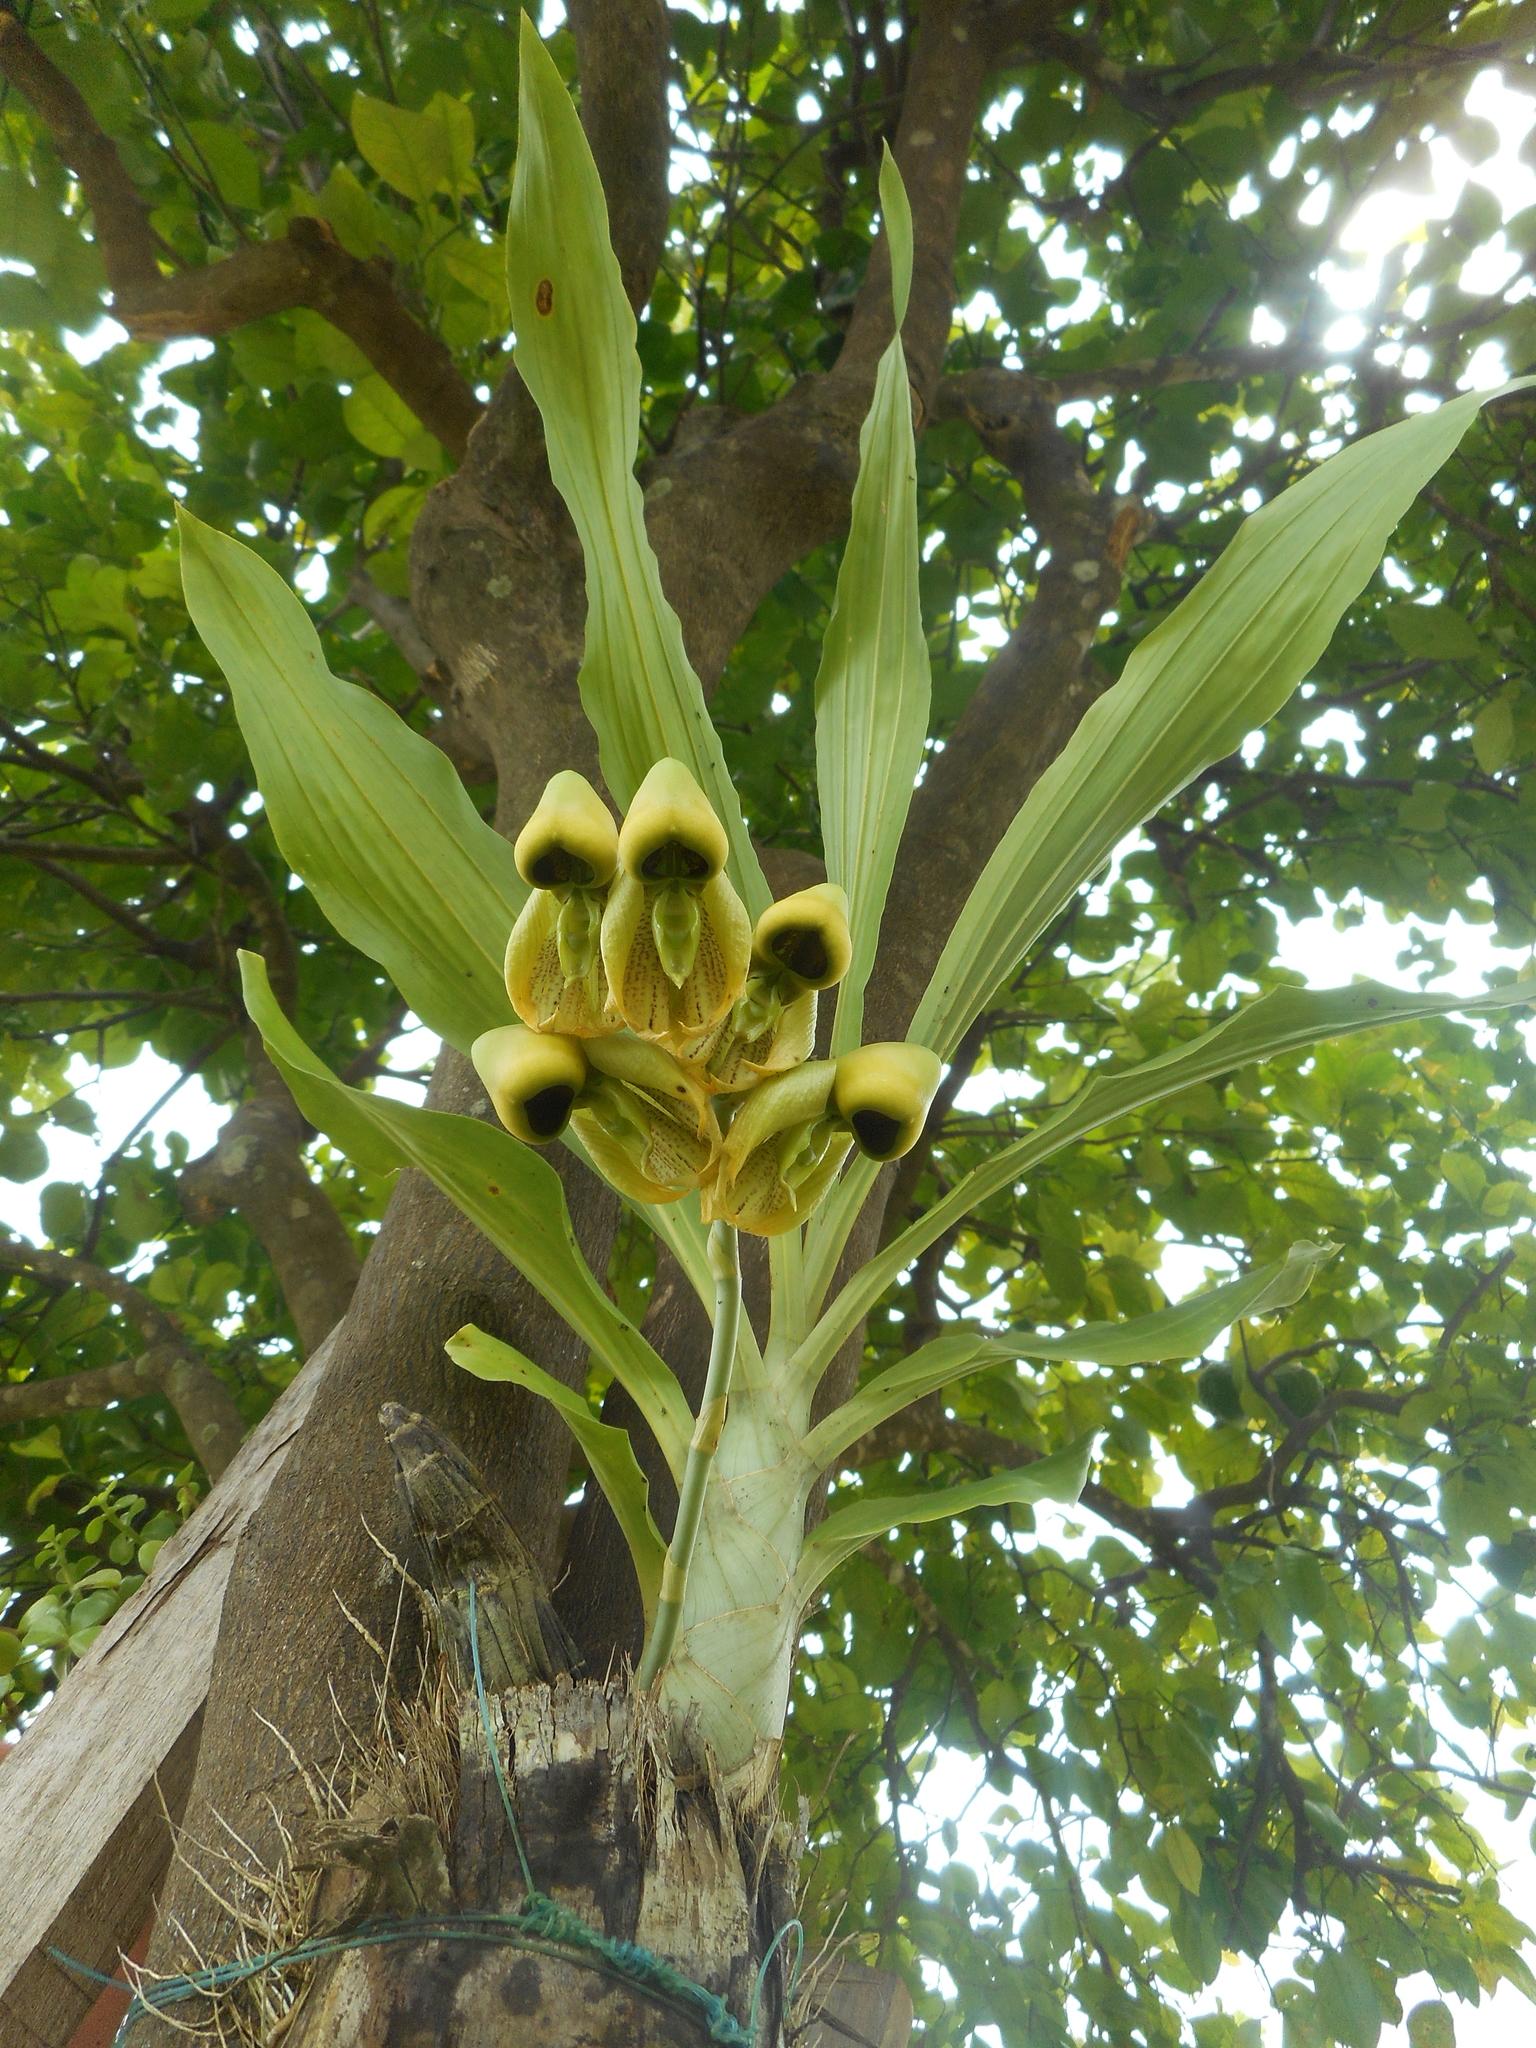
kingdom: Plantae
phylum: Tracheophyta
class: Liliopsida
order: Asparagales
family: Orchidaceae
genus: Catasetum
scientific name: Catasetum integerrimum
